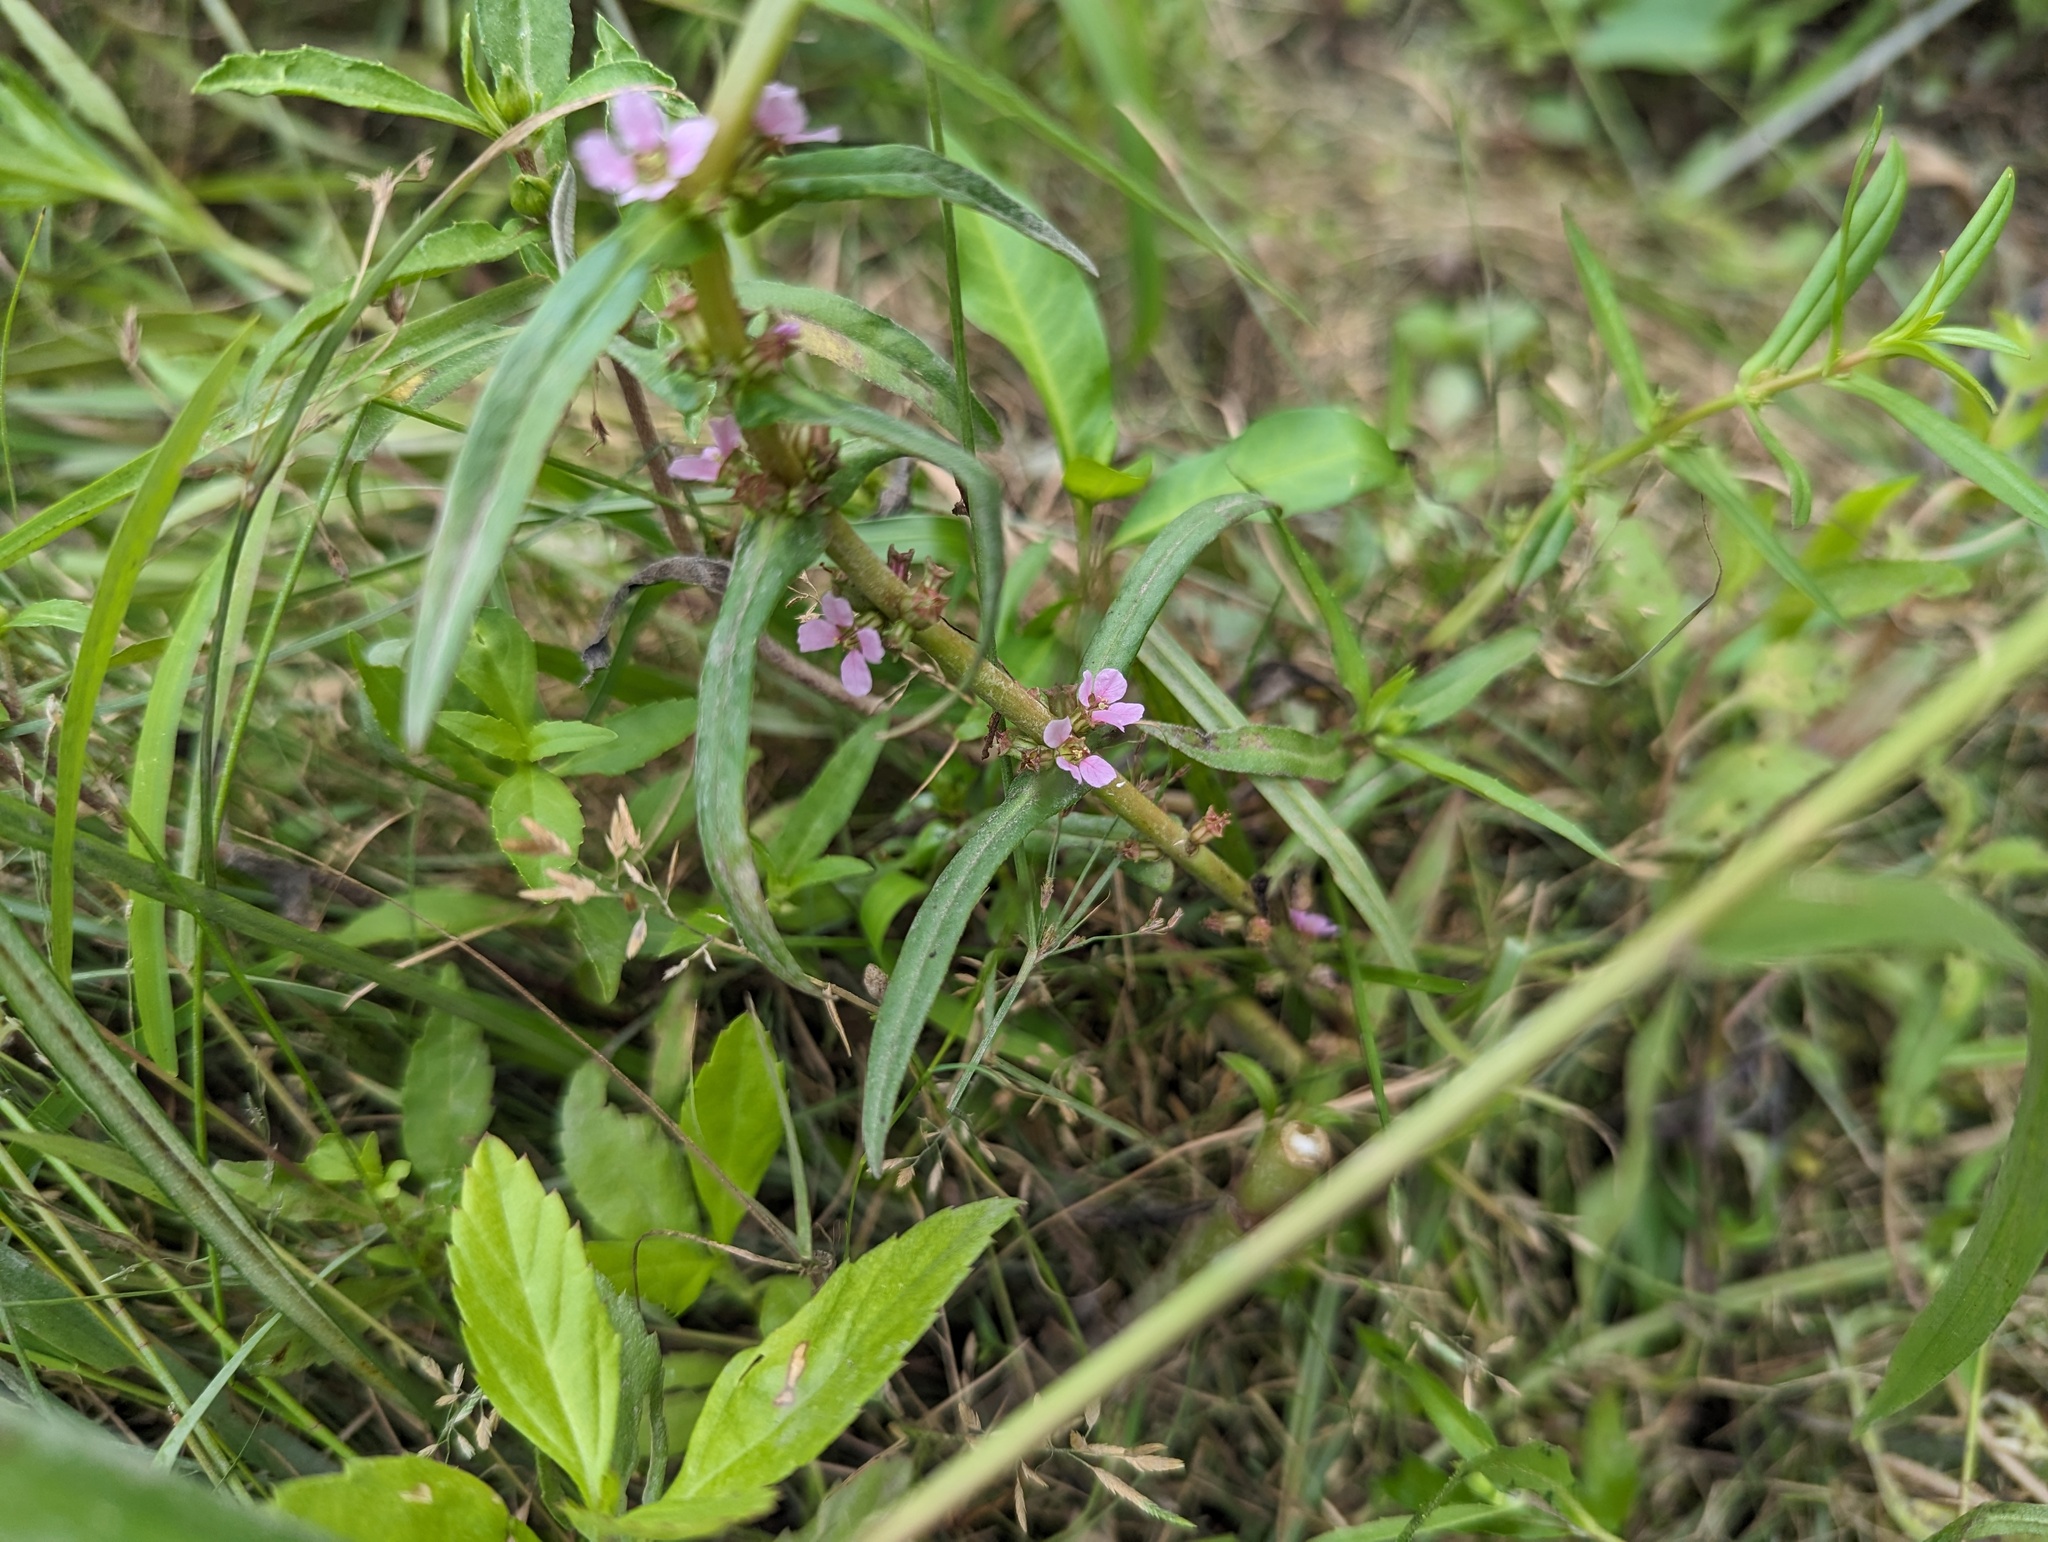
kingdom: Plantae
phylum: Tracheophyta
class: Magnoliopsida
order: Myrtales
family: Lythraceae
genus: Ammannia
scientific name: Ammannia robusta
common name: Grand ammannia
